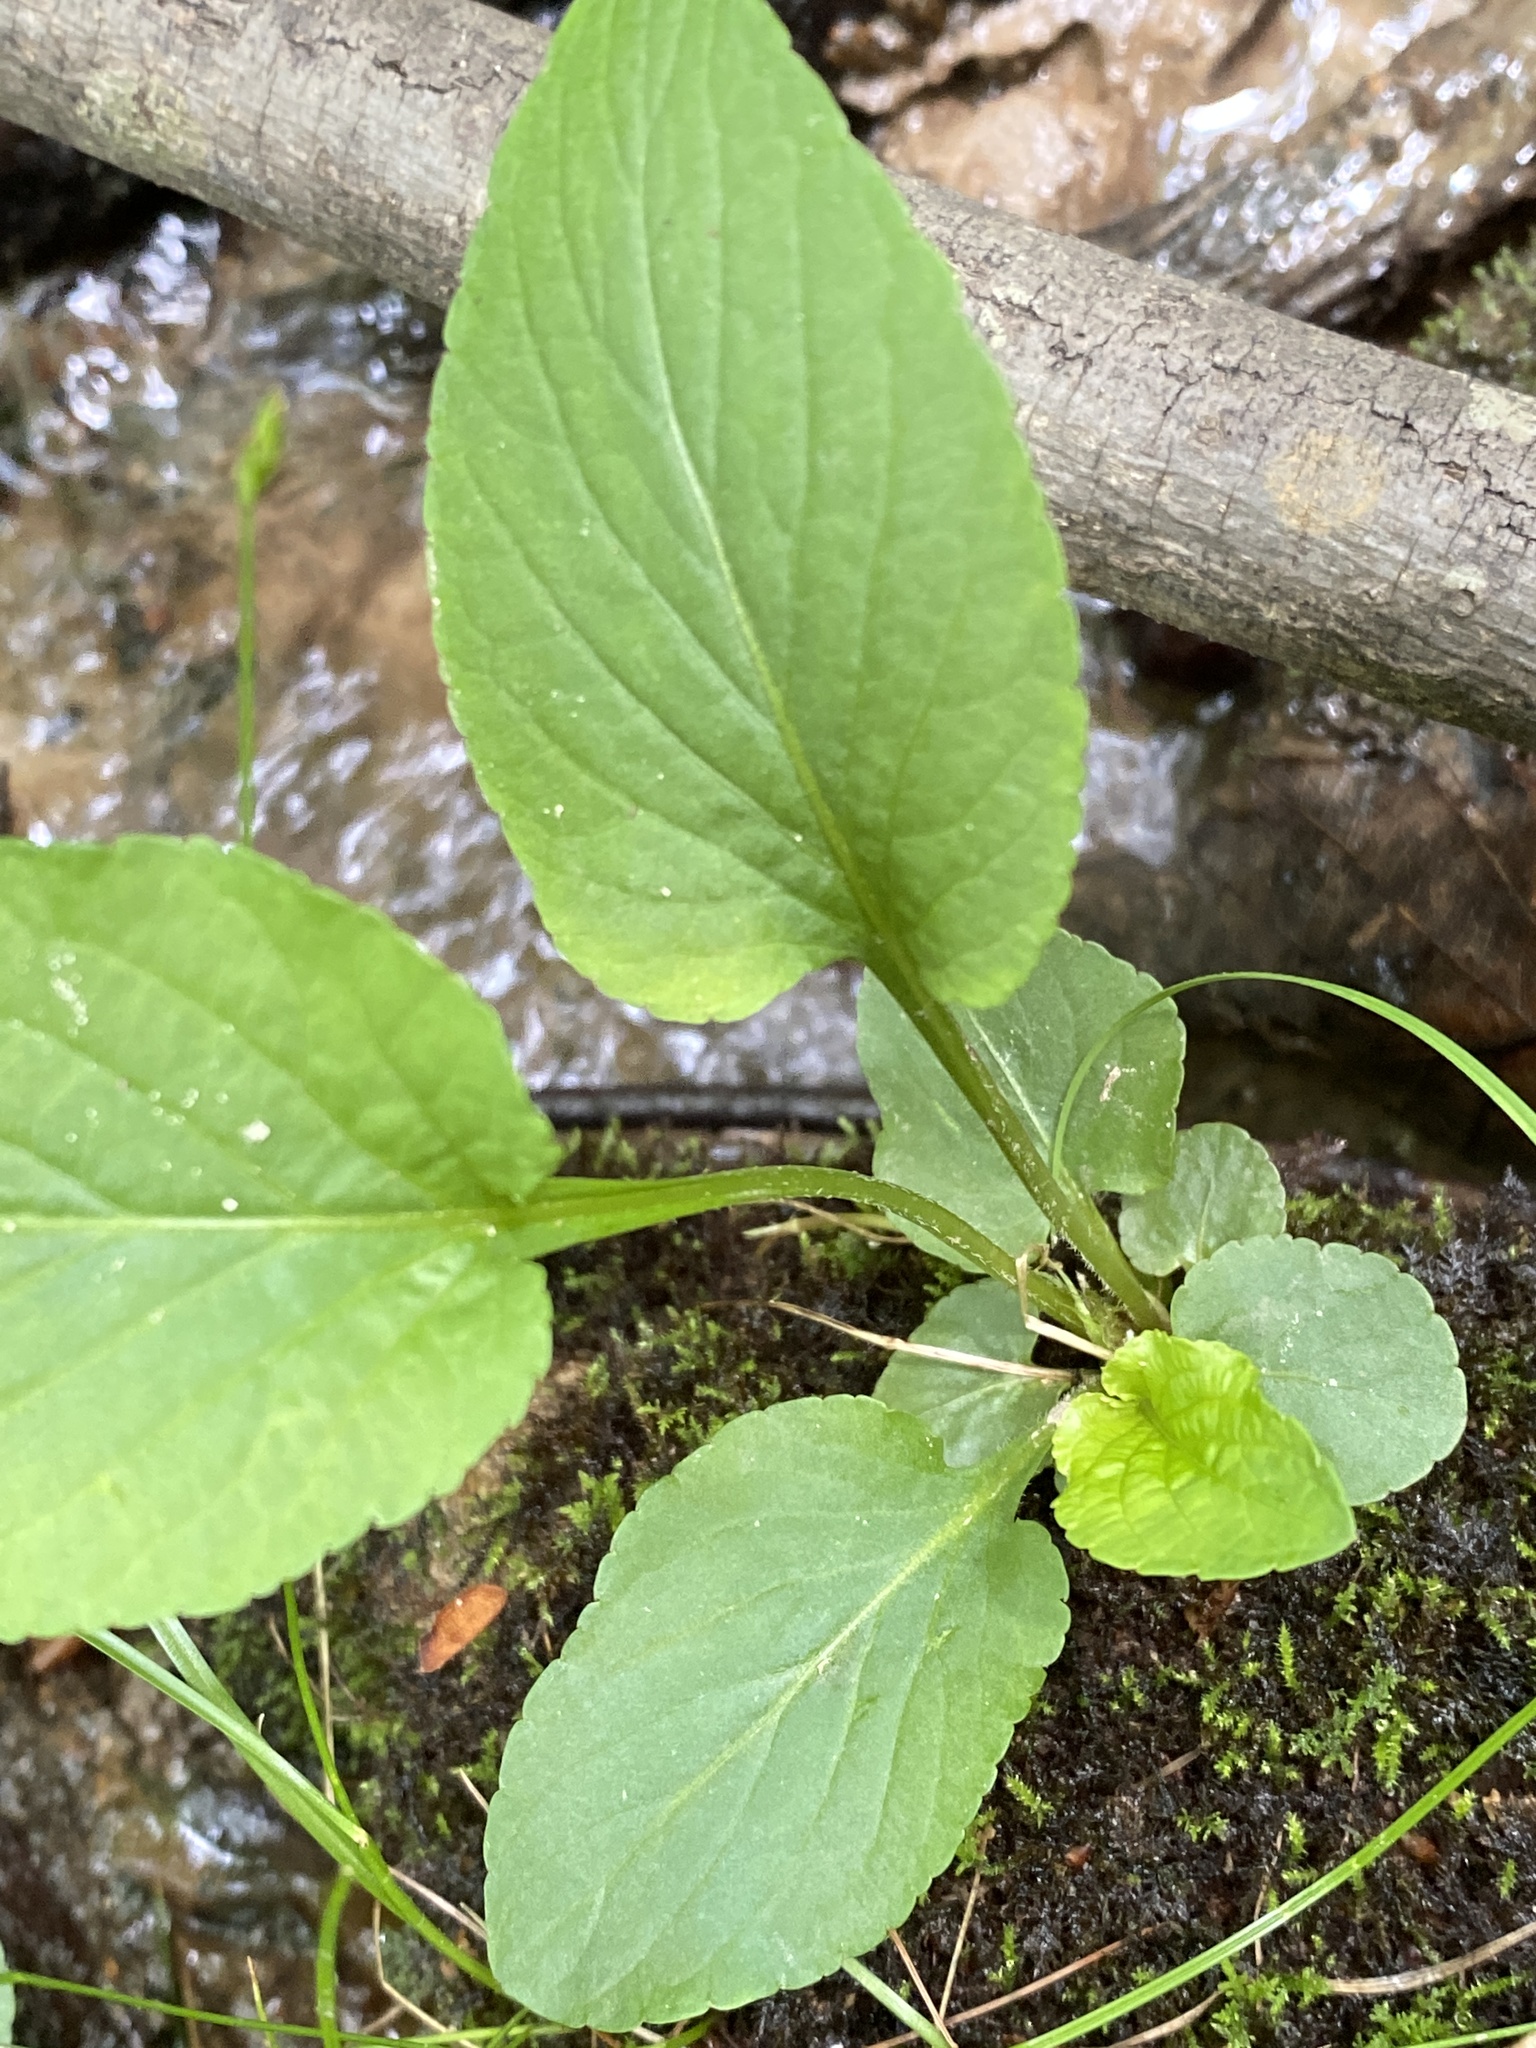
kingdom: Plantae
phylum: Tracheophyta
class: Magnoliopsida
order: Malpighiales
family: Violaceae
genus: Viola
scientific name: Viola primulifolia
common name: Primrose-leaf violet
